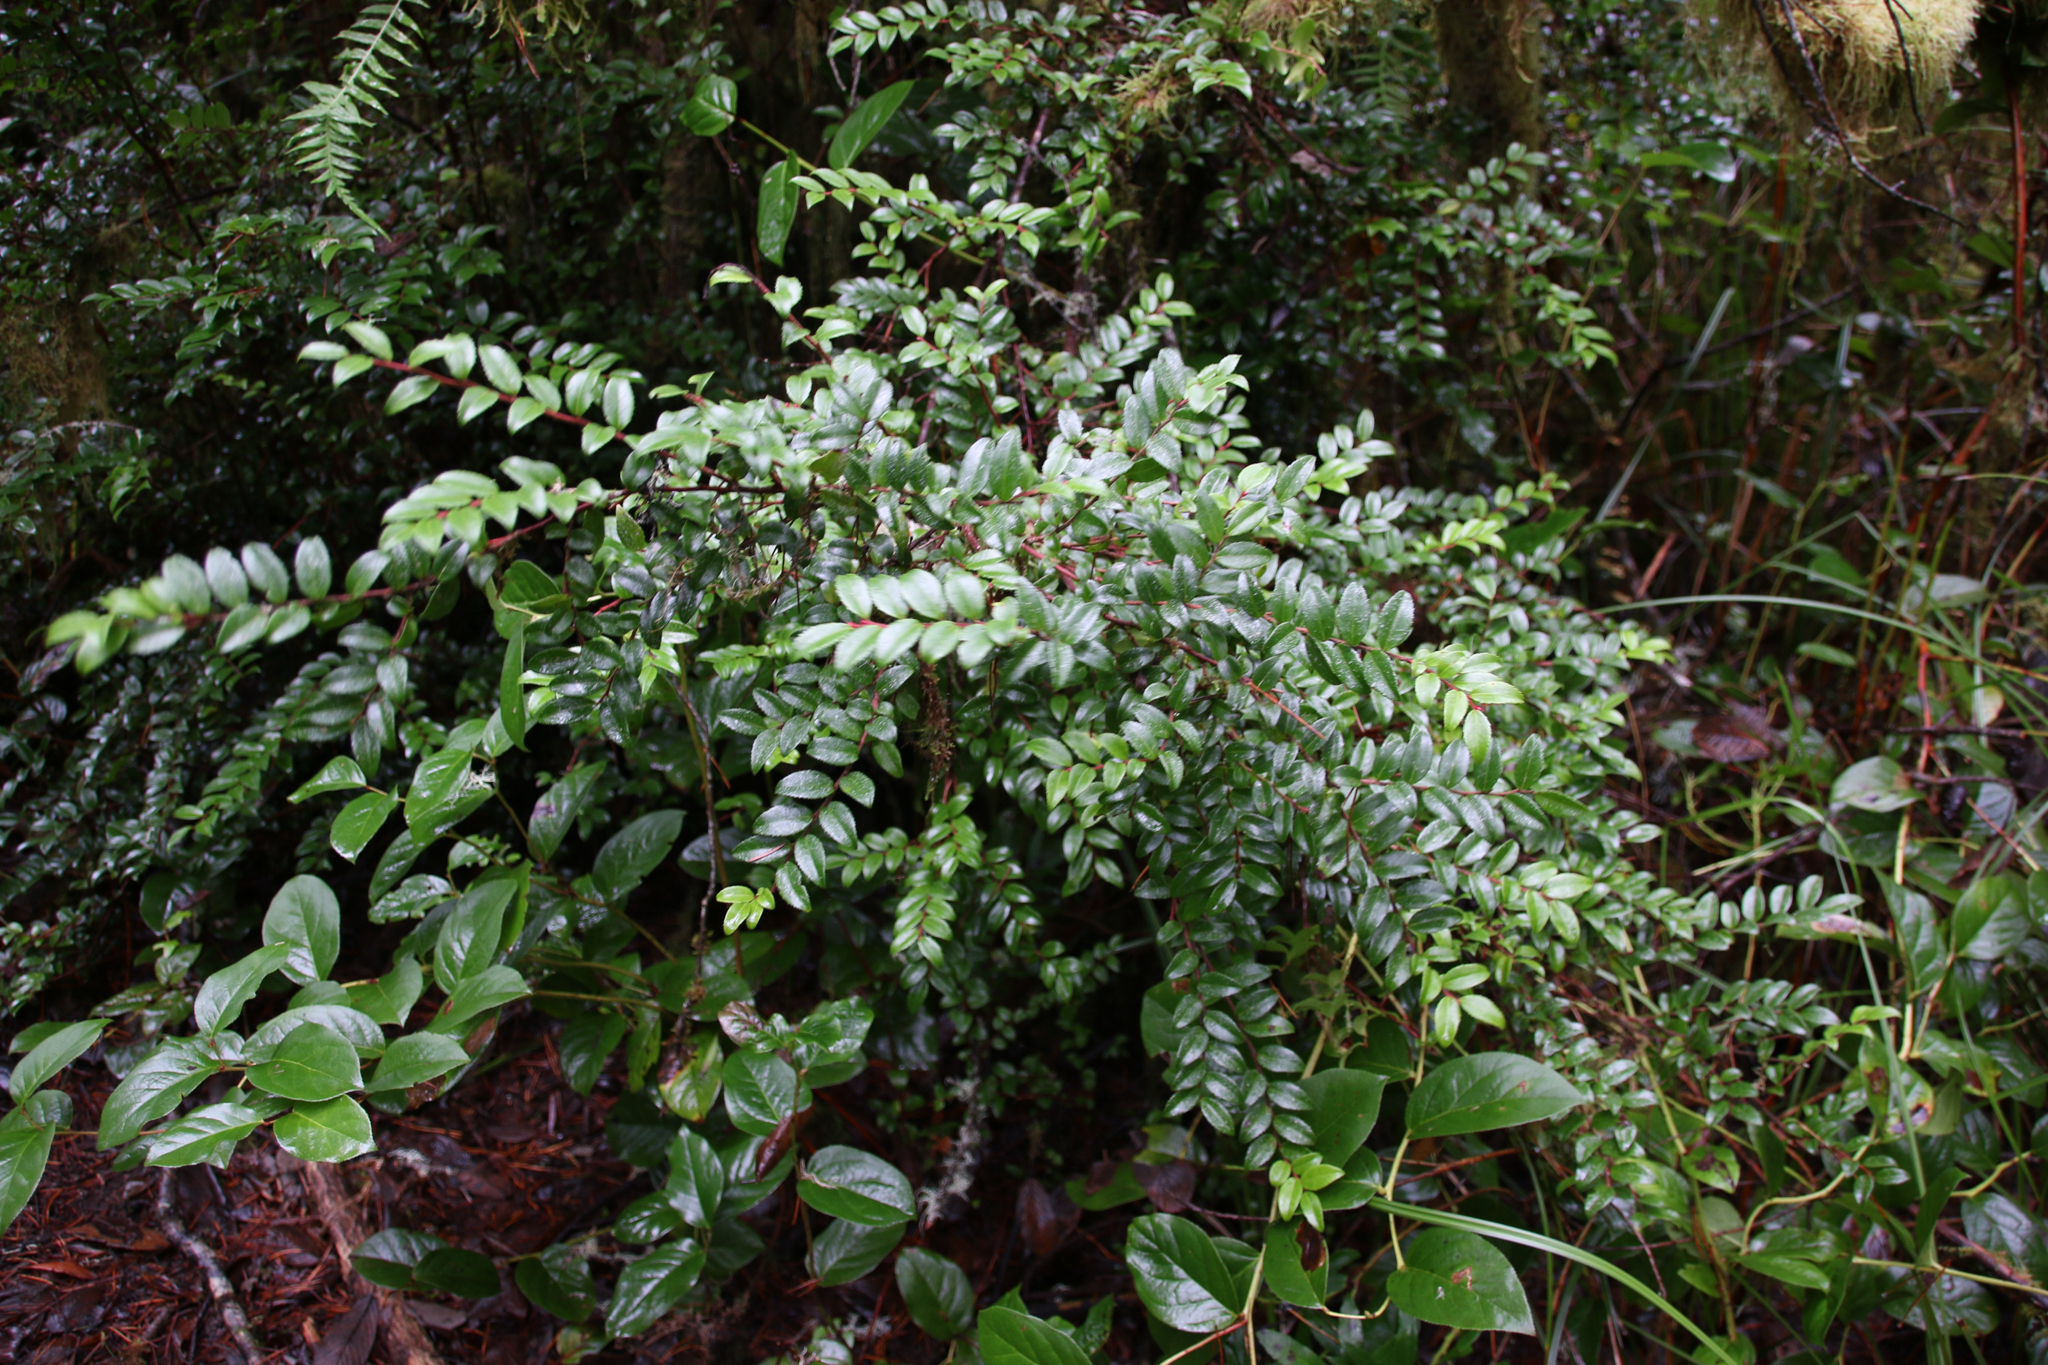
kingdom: Plantae
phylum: Tracheophyta
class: Magnoliopsida
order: Ericales
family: Ericaceae
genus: Vaccinium
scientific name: Vaccinium ovatum
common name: California-huckleberry
